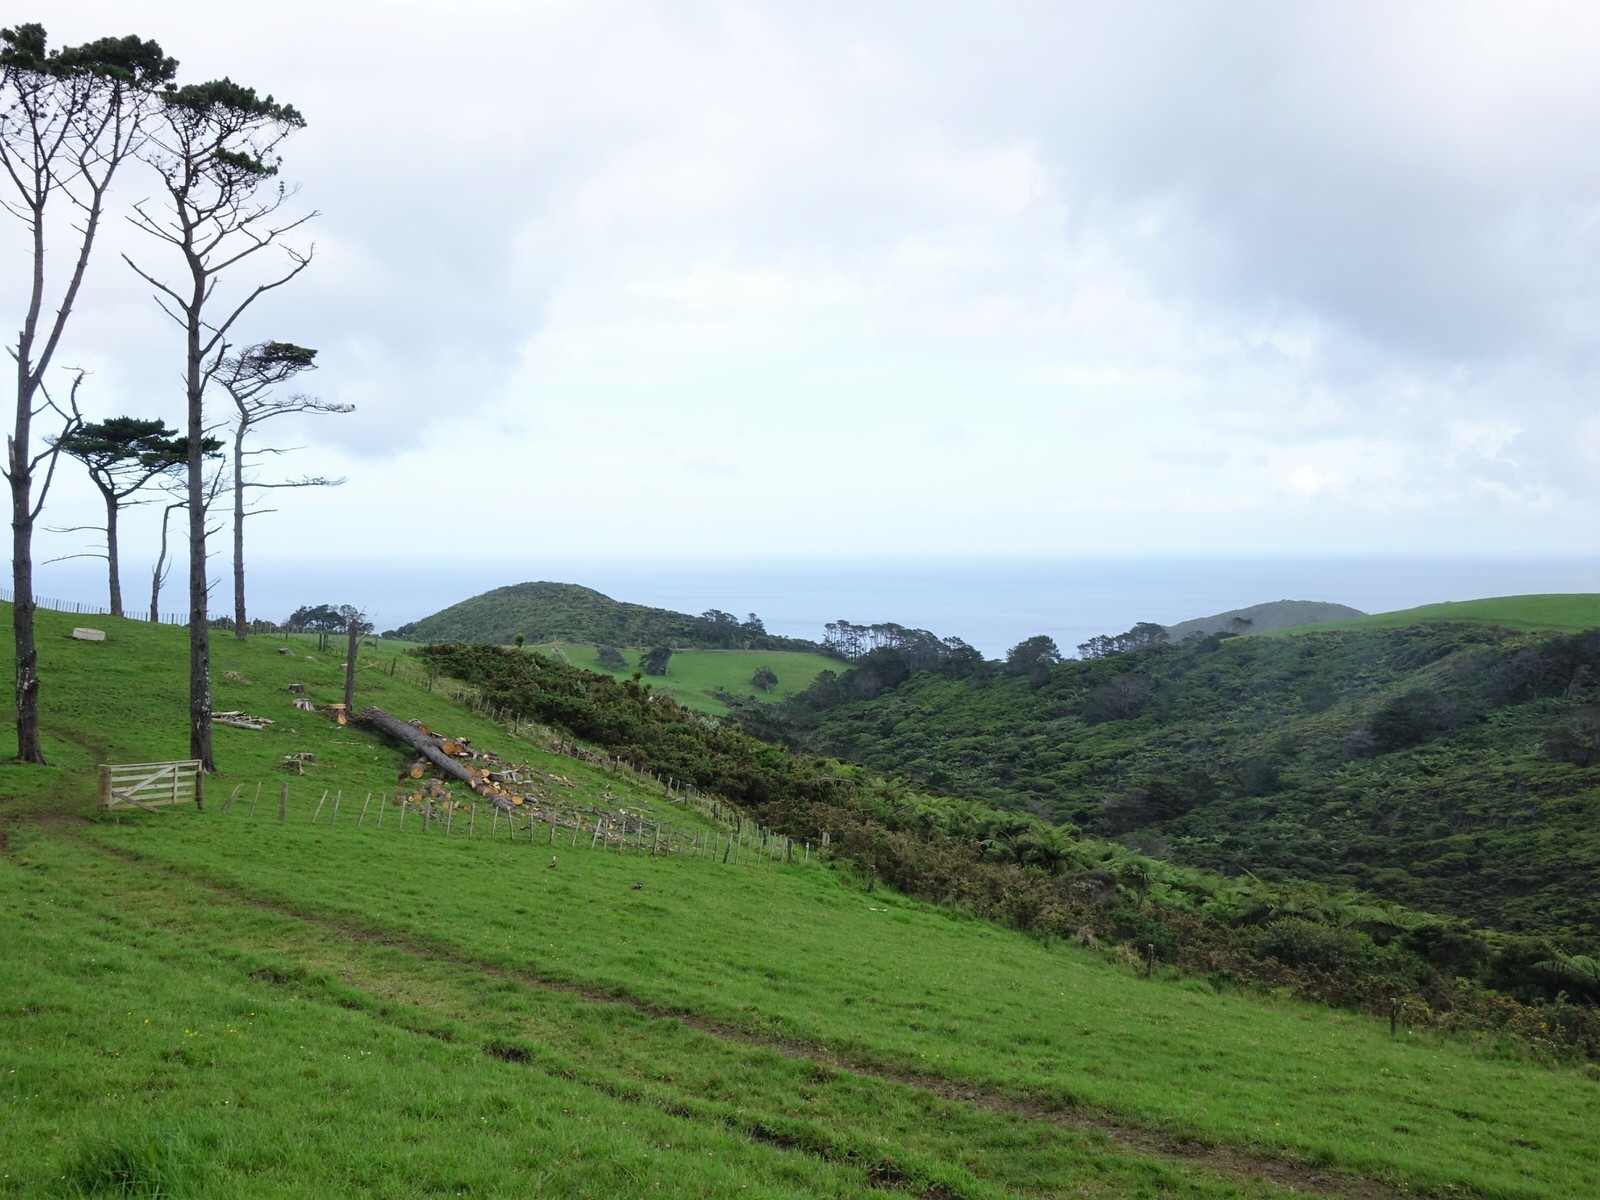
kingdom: Animalia
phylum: Chordata
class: Aves
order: Anseriformes
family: Anatidae
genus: Tadorna
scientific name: Tadorna variegata
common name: Paradise shelduck
